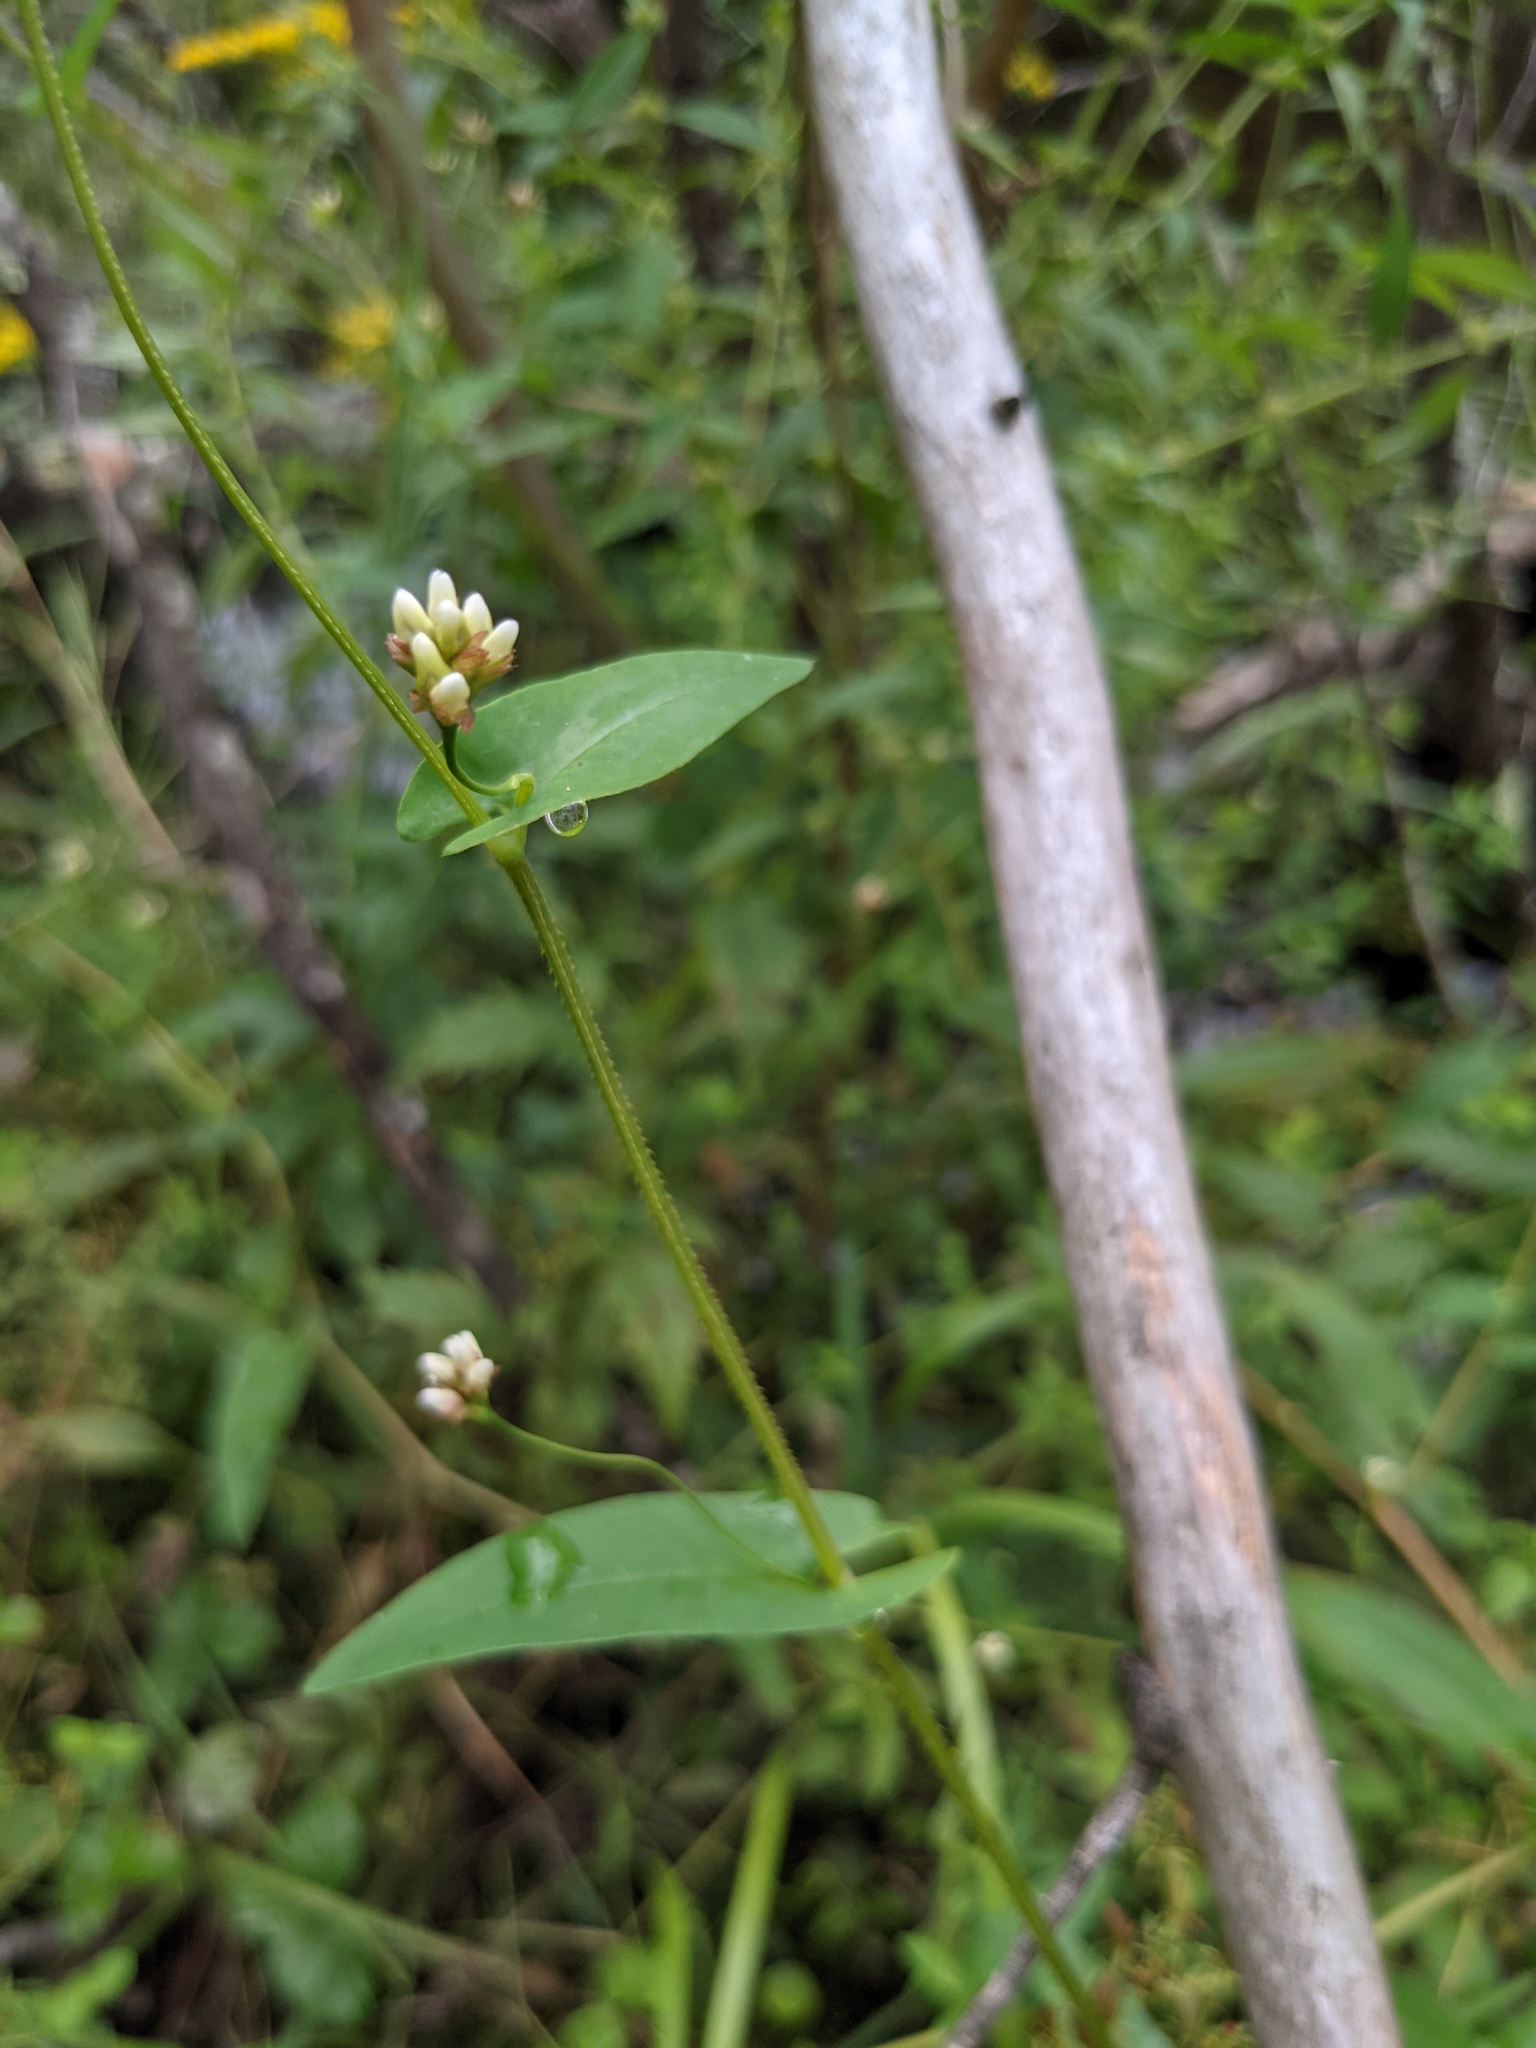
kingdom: Plantae
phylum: Tracheophyta
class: Magnoliopsida
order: Caryophyllales
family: Polygonaceae
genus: Persicaria
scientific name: Persicaria sagittata
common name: American tearthumb
